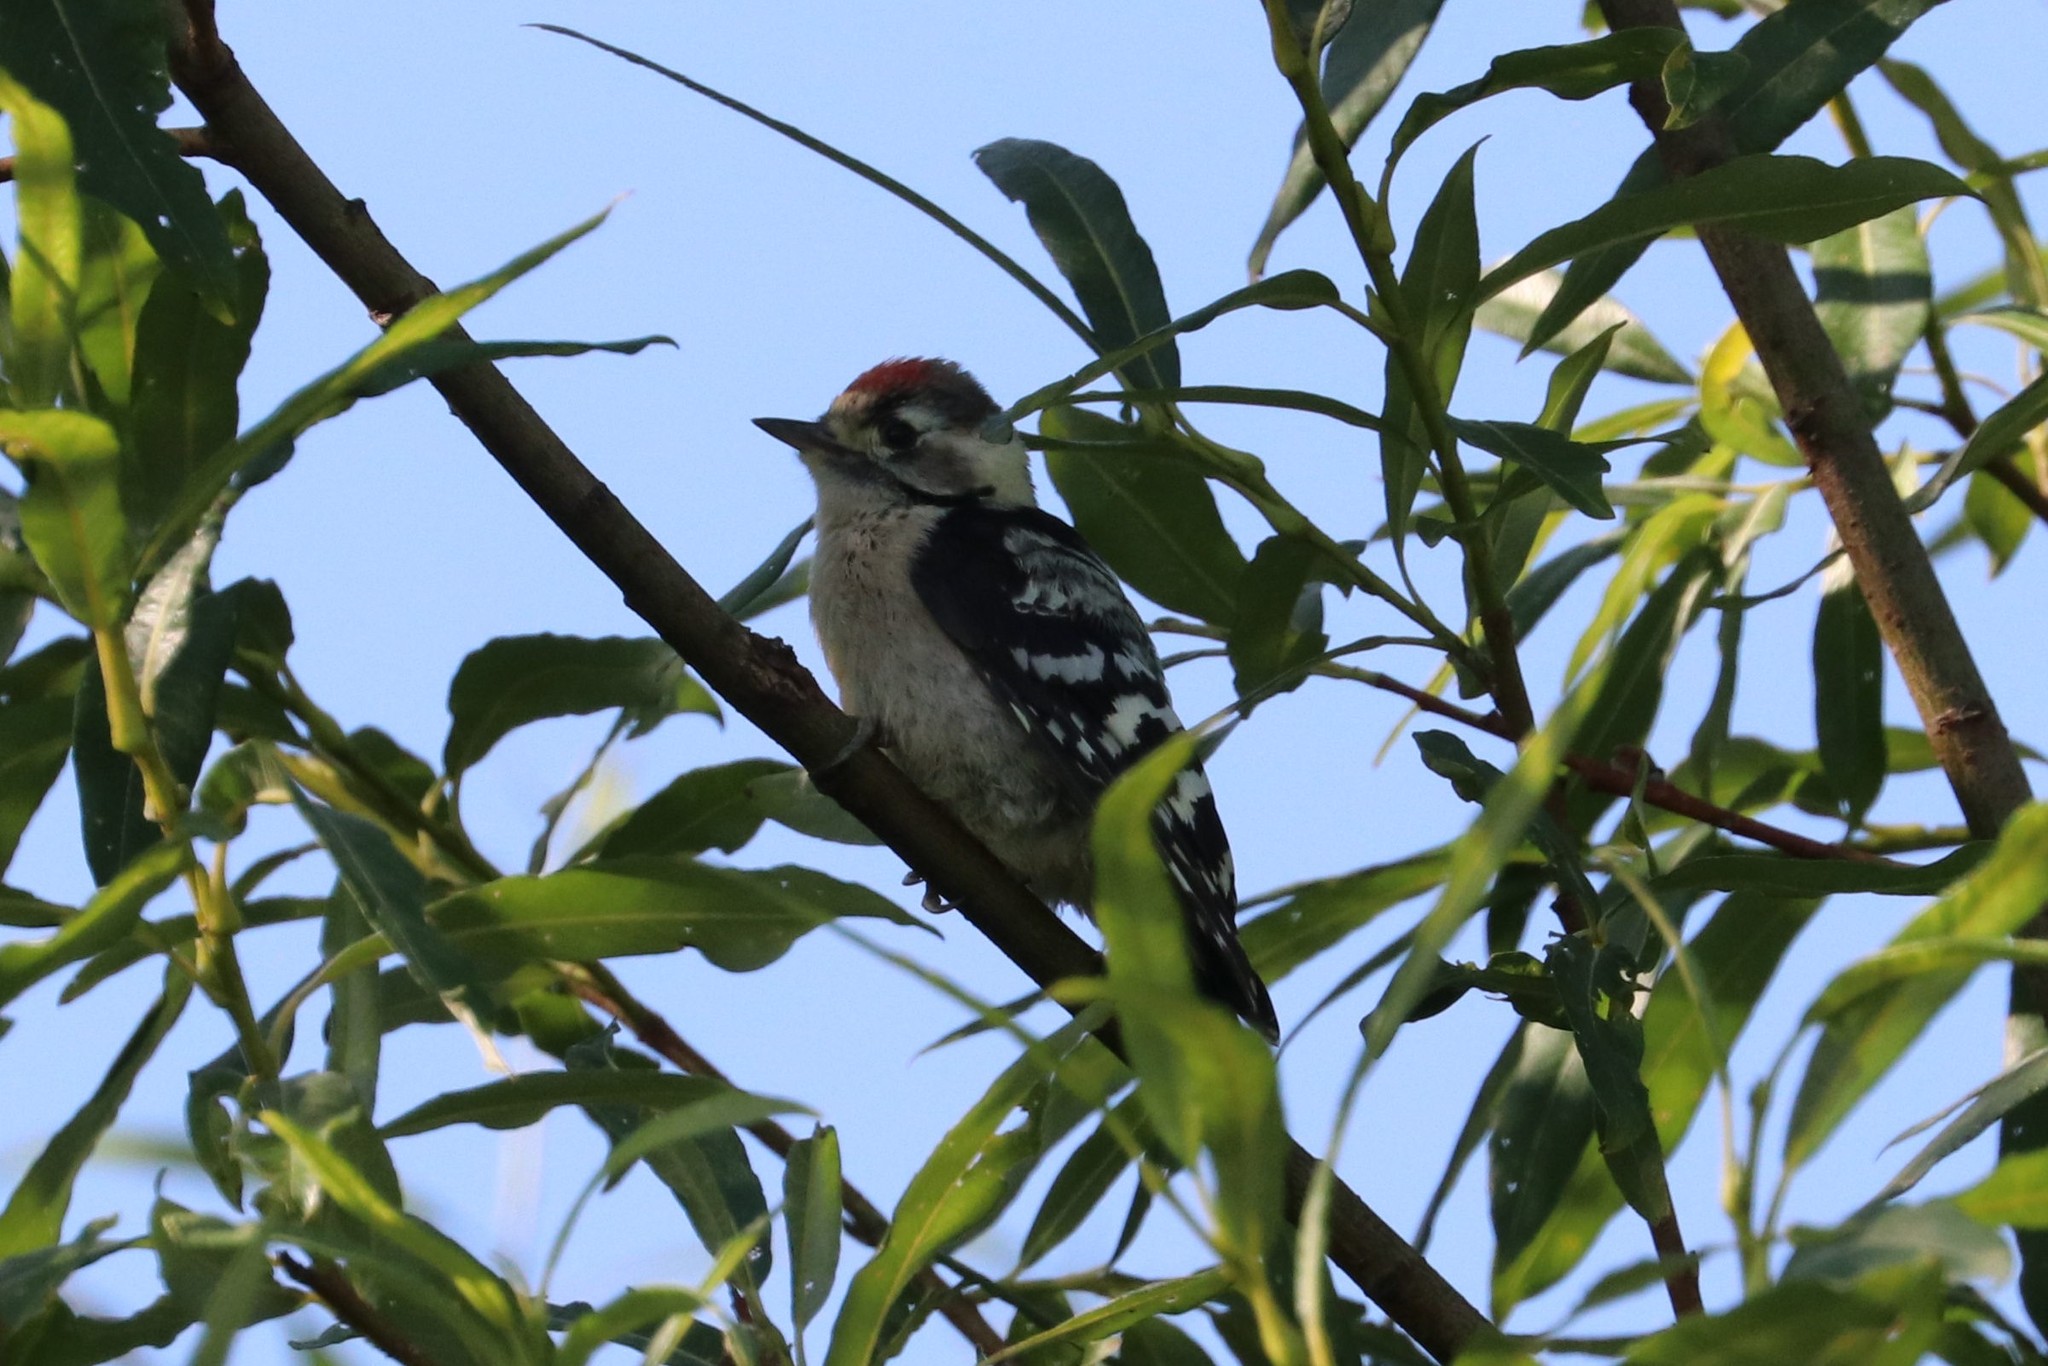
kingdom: Animalia
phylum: Chordata
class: Aves
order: Piciformes
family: Picidae
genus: Dryobates
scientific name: Dryobates minor
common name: Lesser spotted woodpecker
